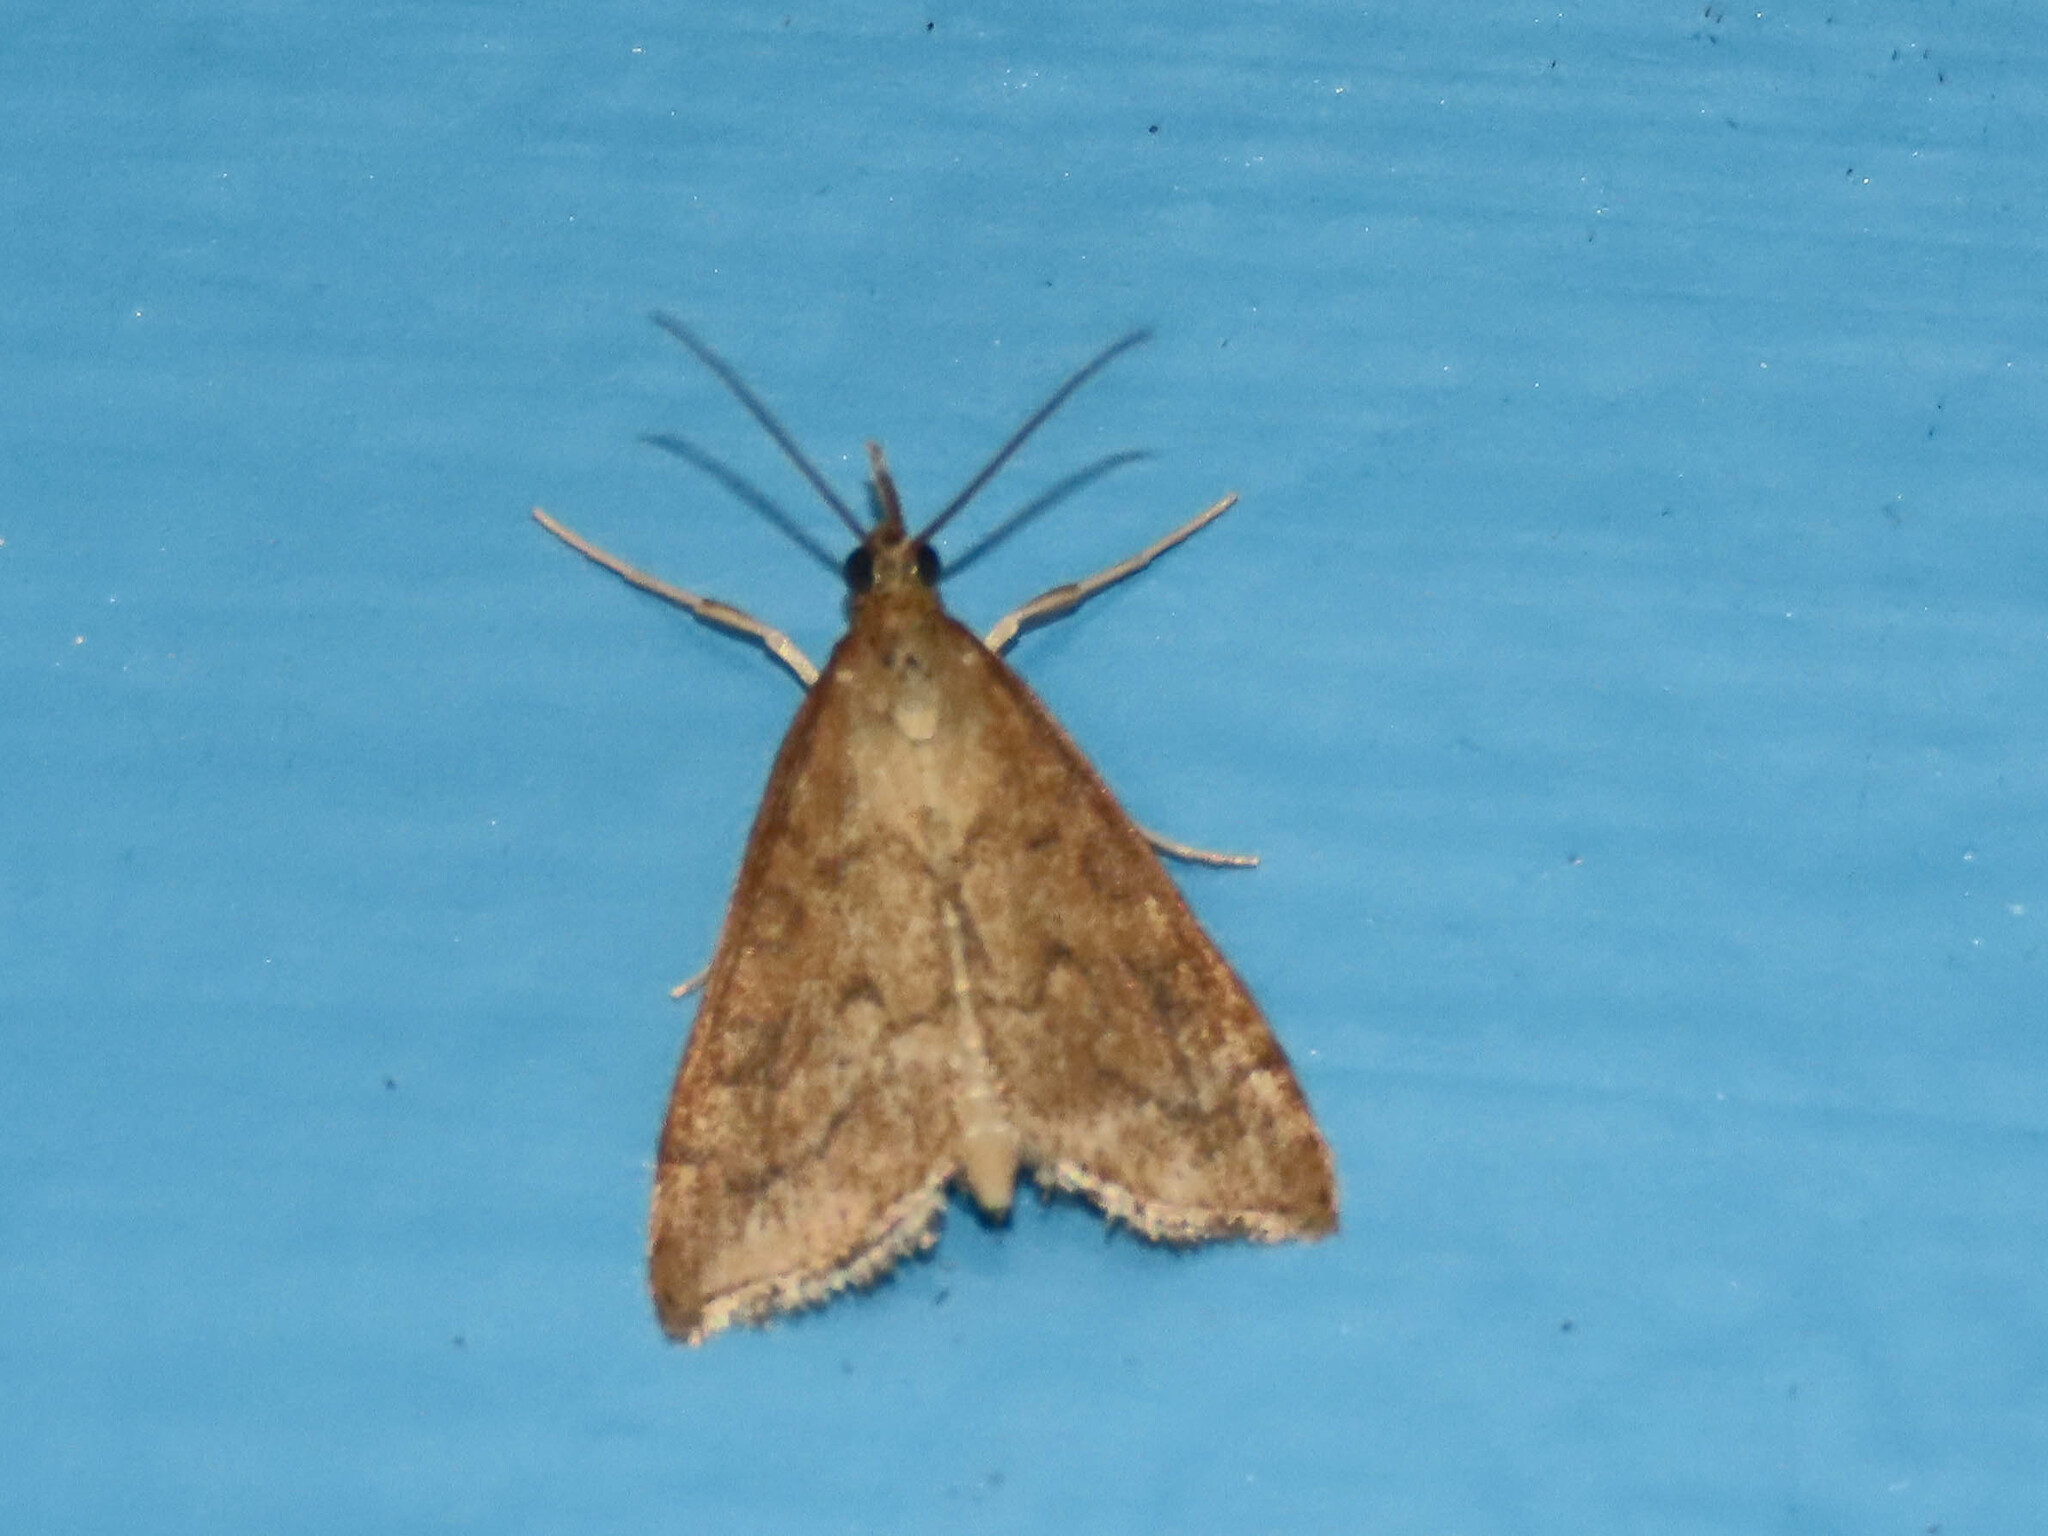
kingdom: Animalia
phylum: Arthropoda
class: Insecta
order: Lepidoptera
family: Crambidae
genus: Udea
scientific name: Udea rubigalis
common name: Celery leaftier moth
